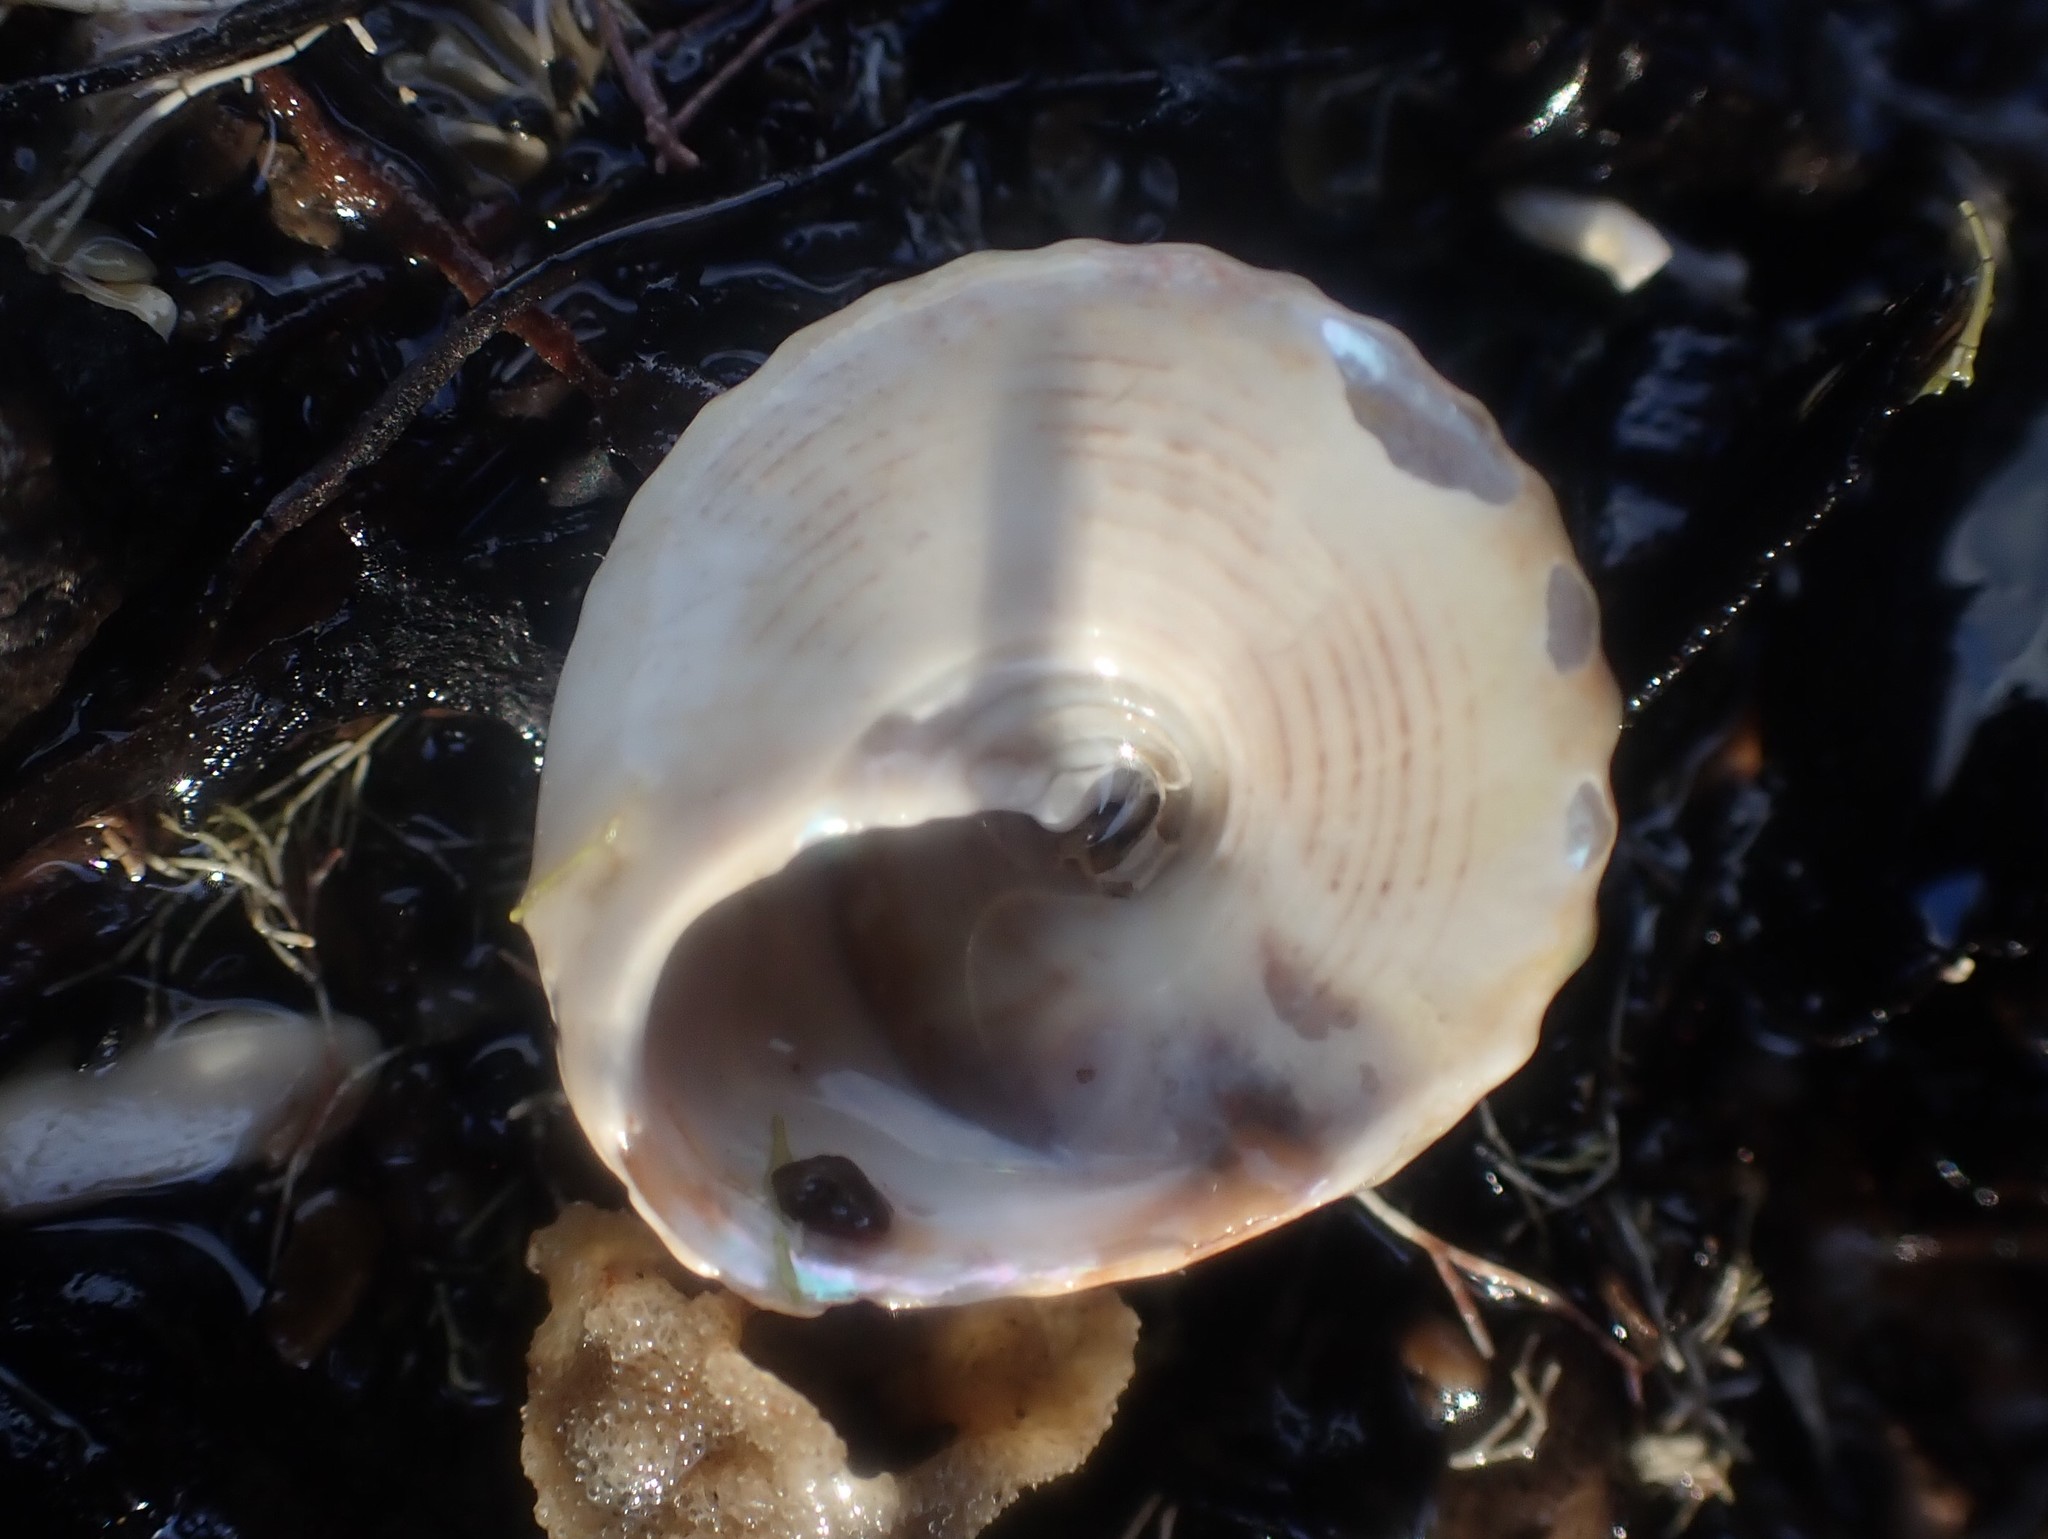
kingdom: Animalia
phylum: Mollusca
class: Gastropoda
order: Trochida
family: Trochidae
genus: Coelotrochus
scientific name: Coelotrochus viridis
